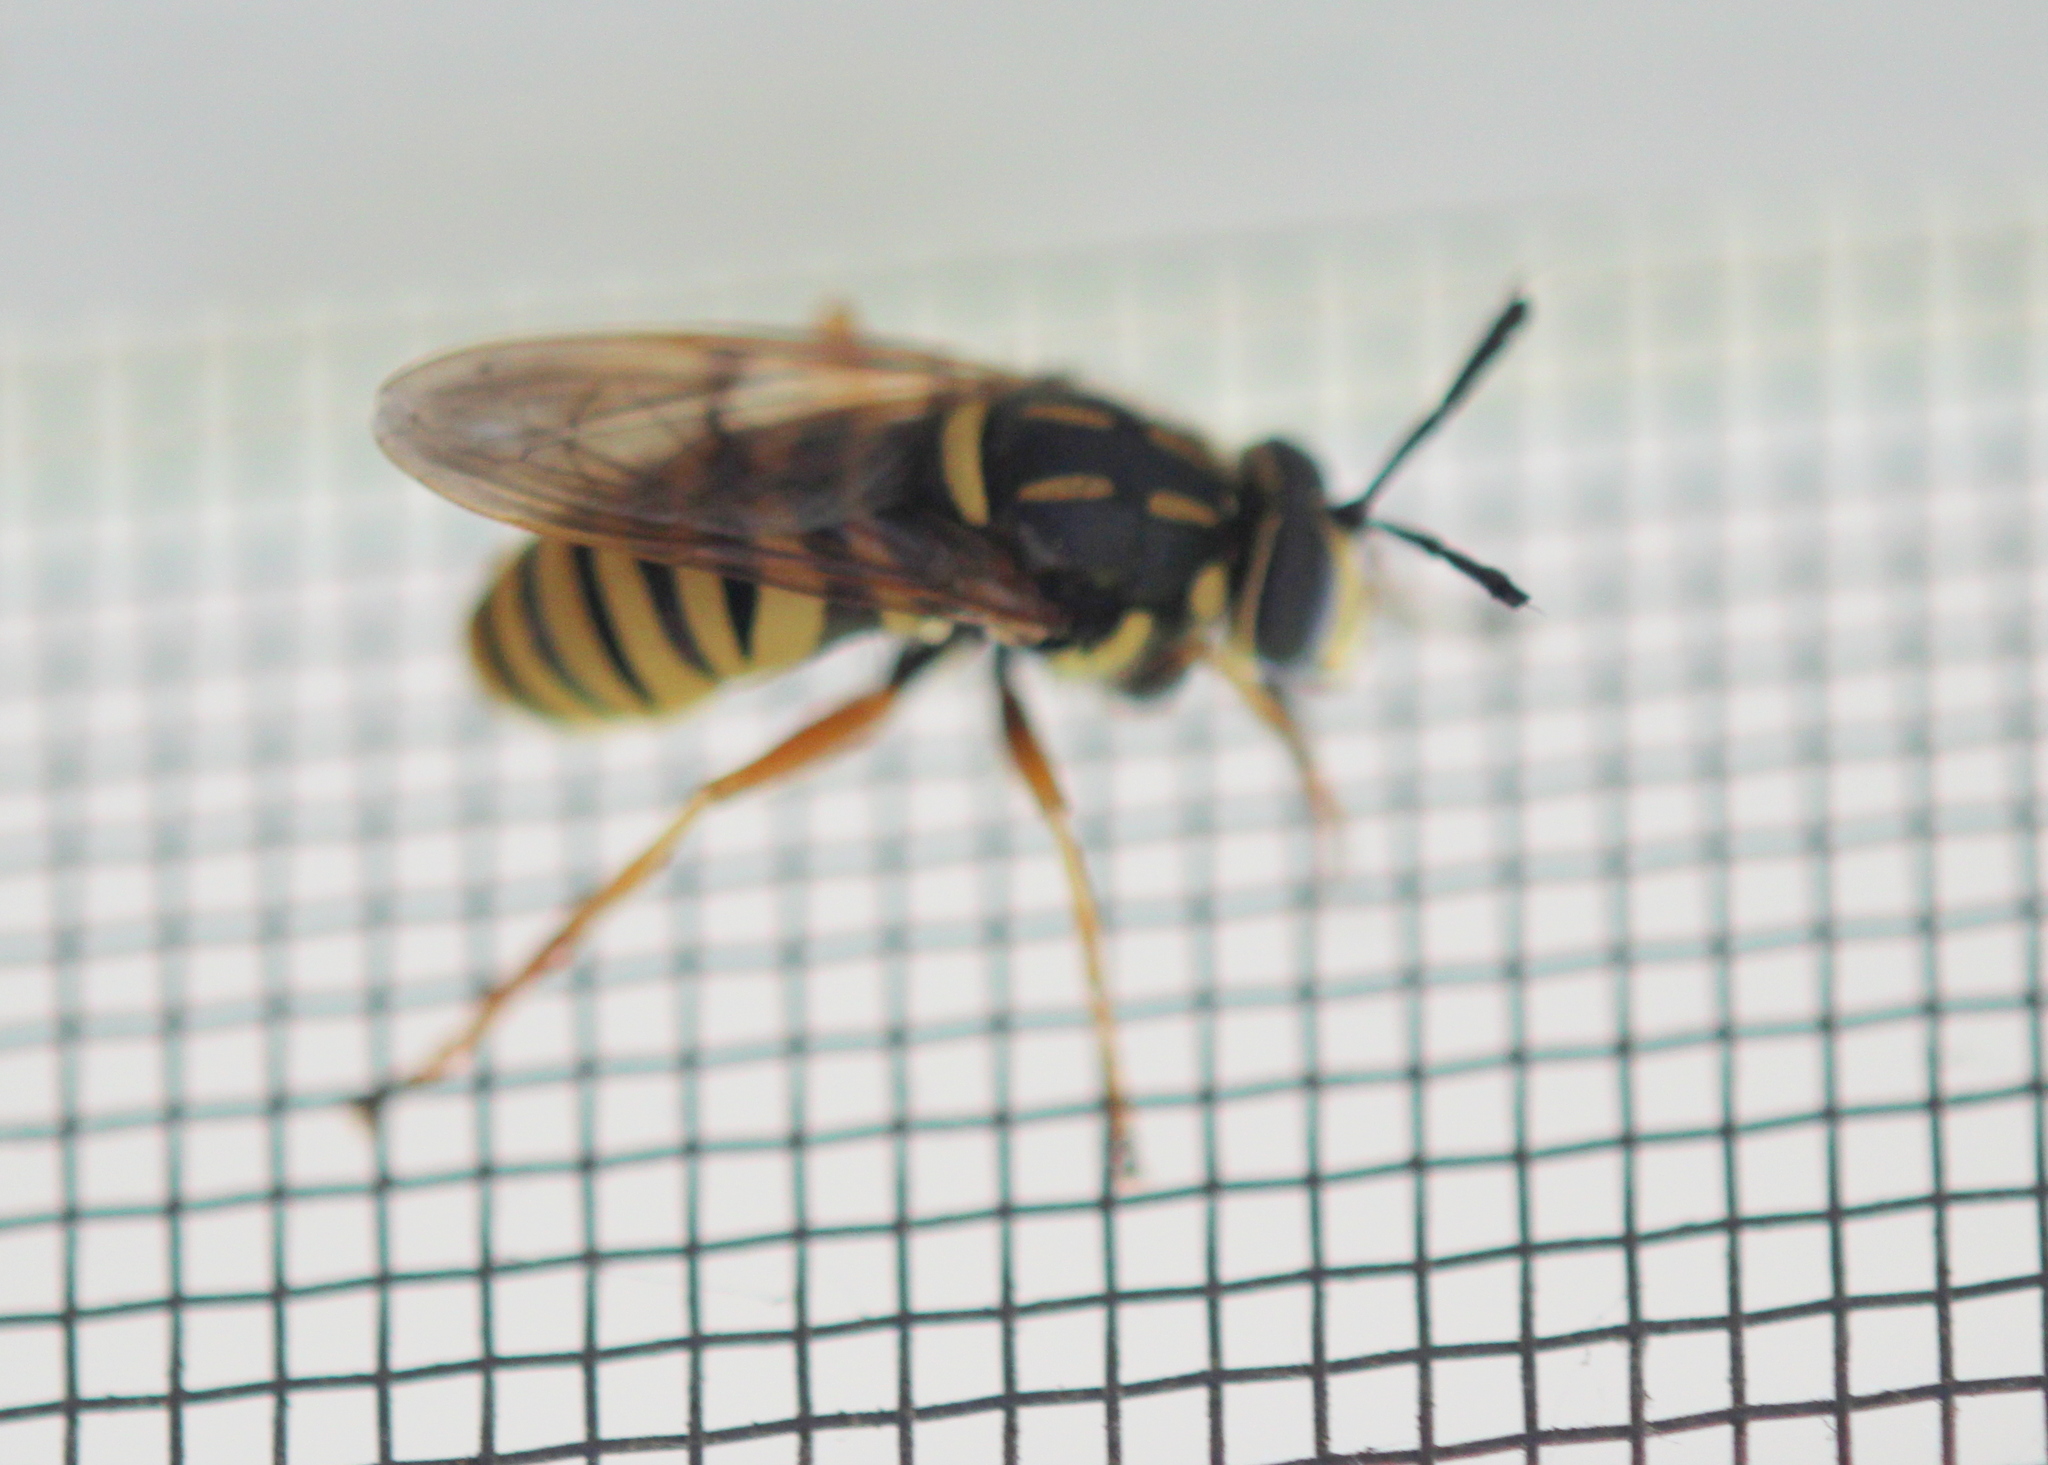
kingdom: Animalia
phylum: Arthropoda
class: Insecta
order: Diptera
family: Syrphidae
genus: Sphecomyia
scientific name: Sphecomyia vittata
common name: Long-horned yellowjacket fly
